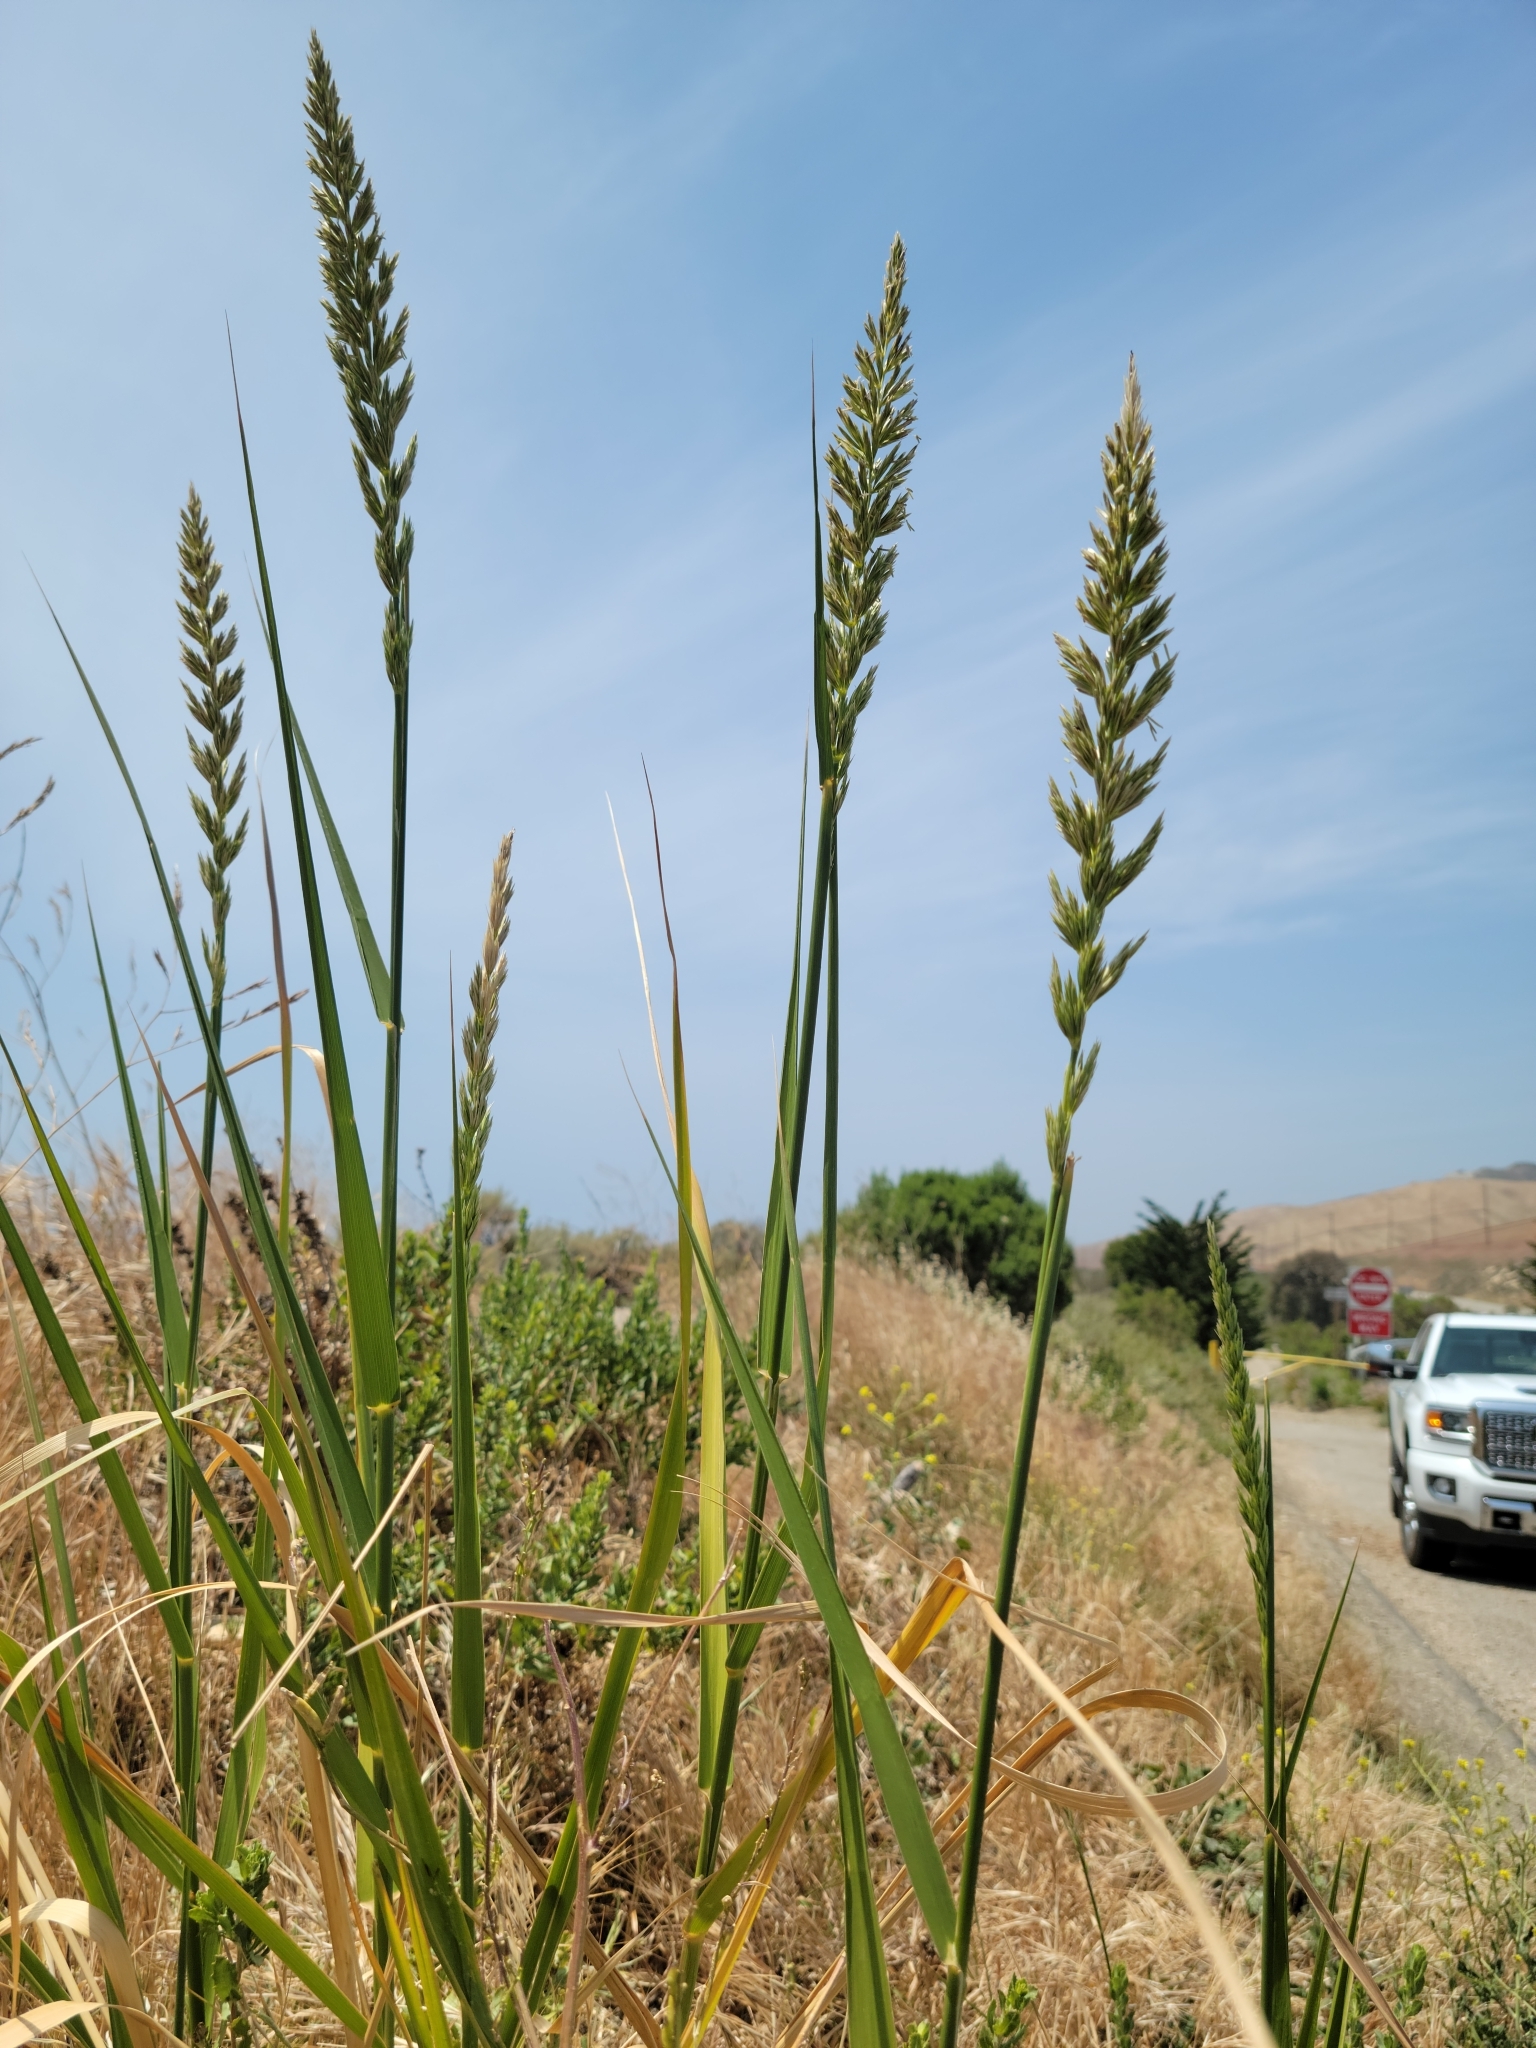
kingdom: Plantae
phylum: Tracheophyta
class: Liliopsida
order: Poales
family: Poaceae
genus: Leymus
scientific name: Leymus condensatus
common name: Giant wild rye
